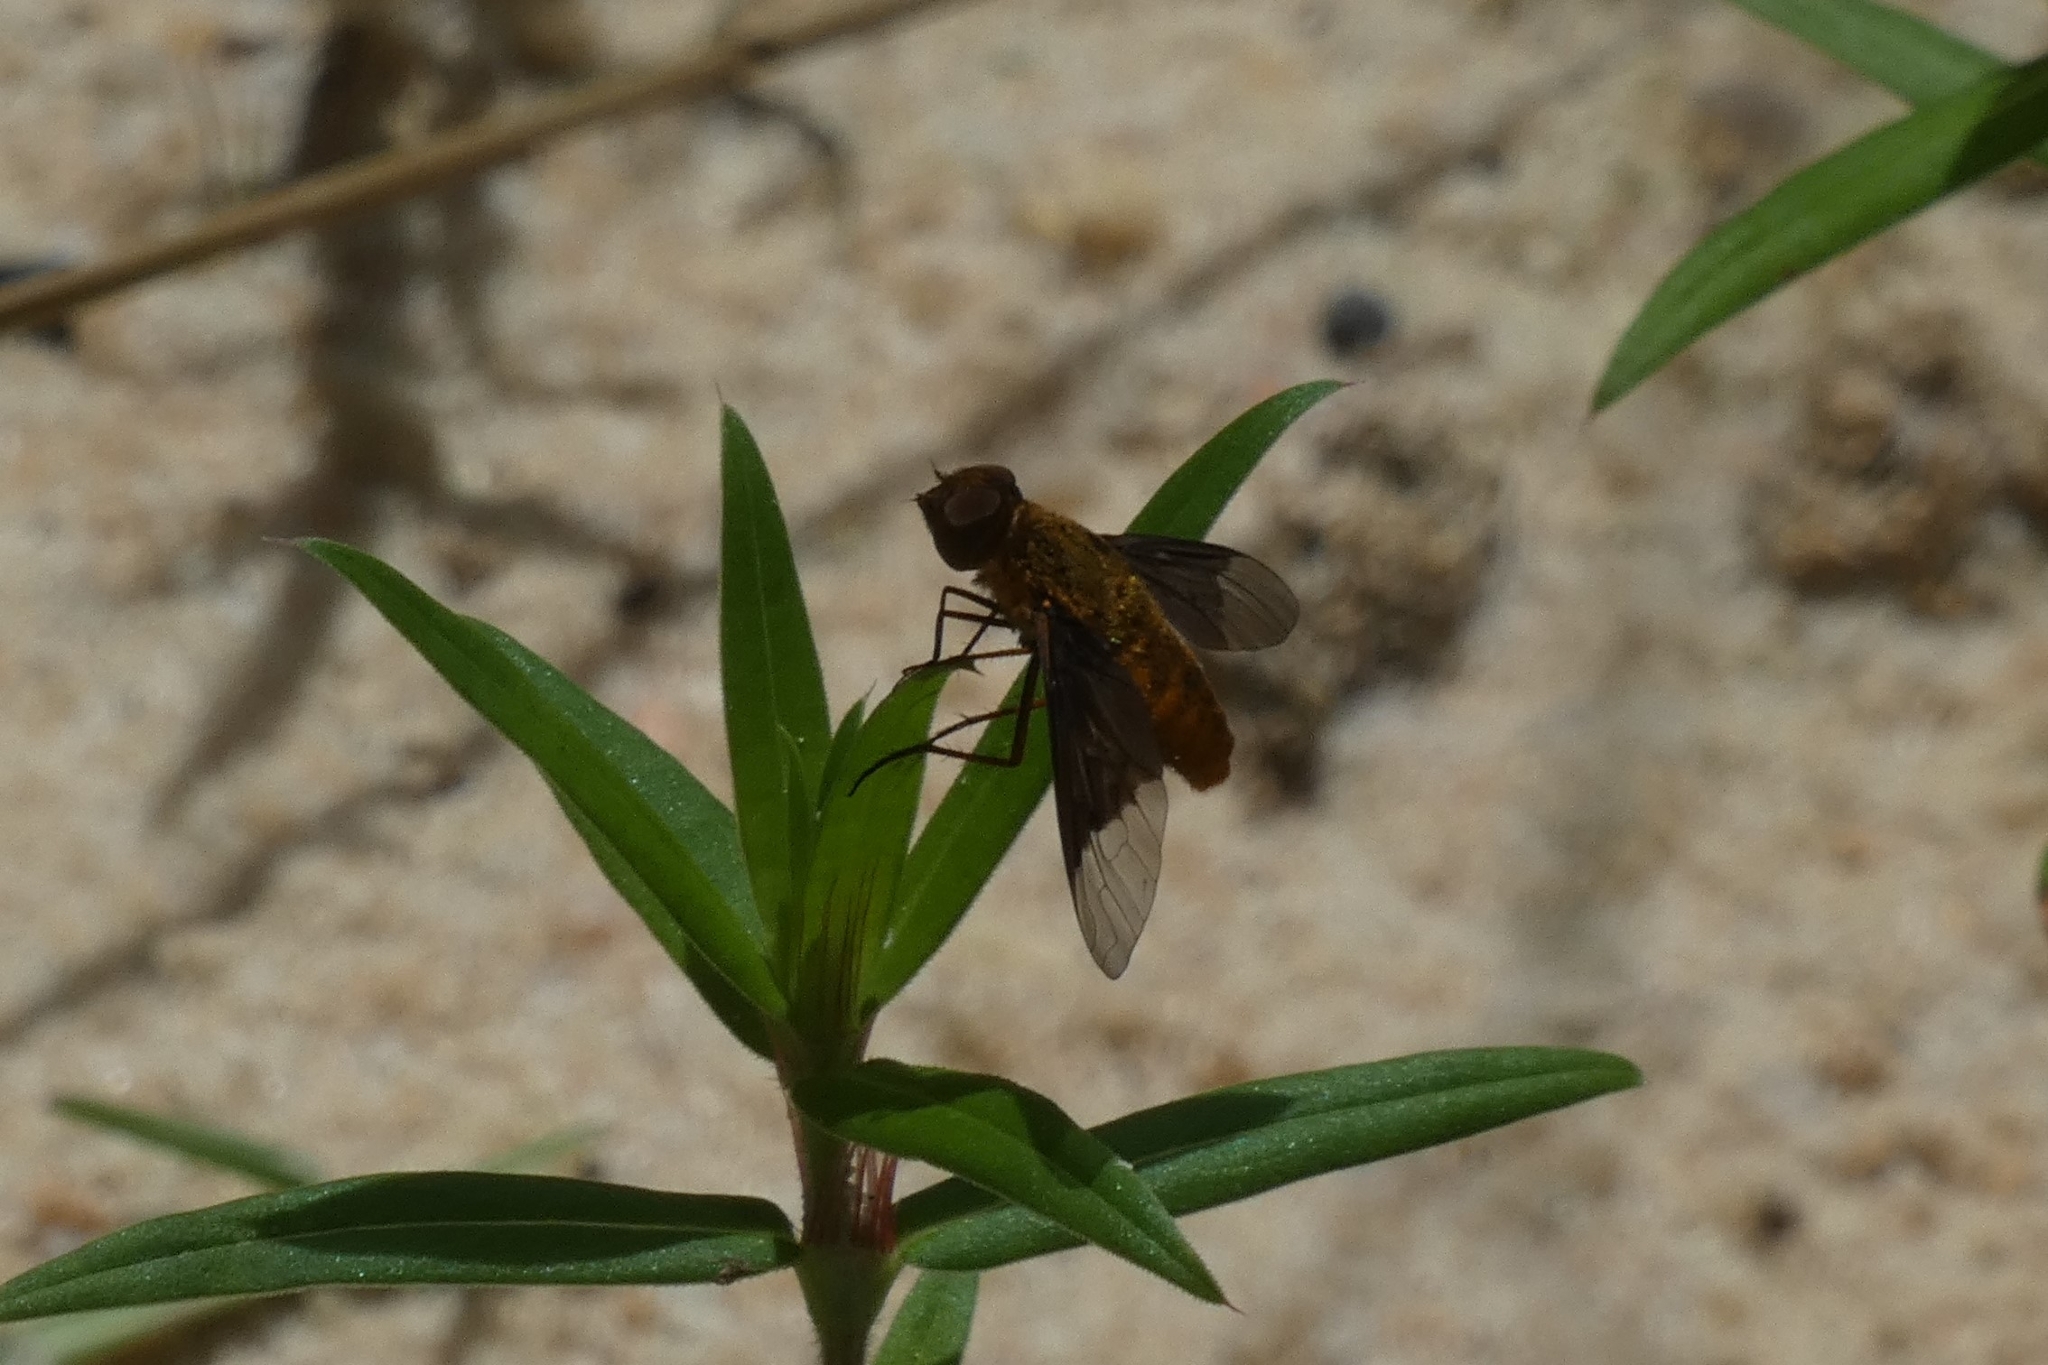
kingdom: Animalia
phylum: Arthropoda
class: Insecta
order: Diptera
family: Bombyliidae
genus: Chrysanthrax
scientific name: Chrysanthrax cypris
